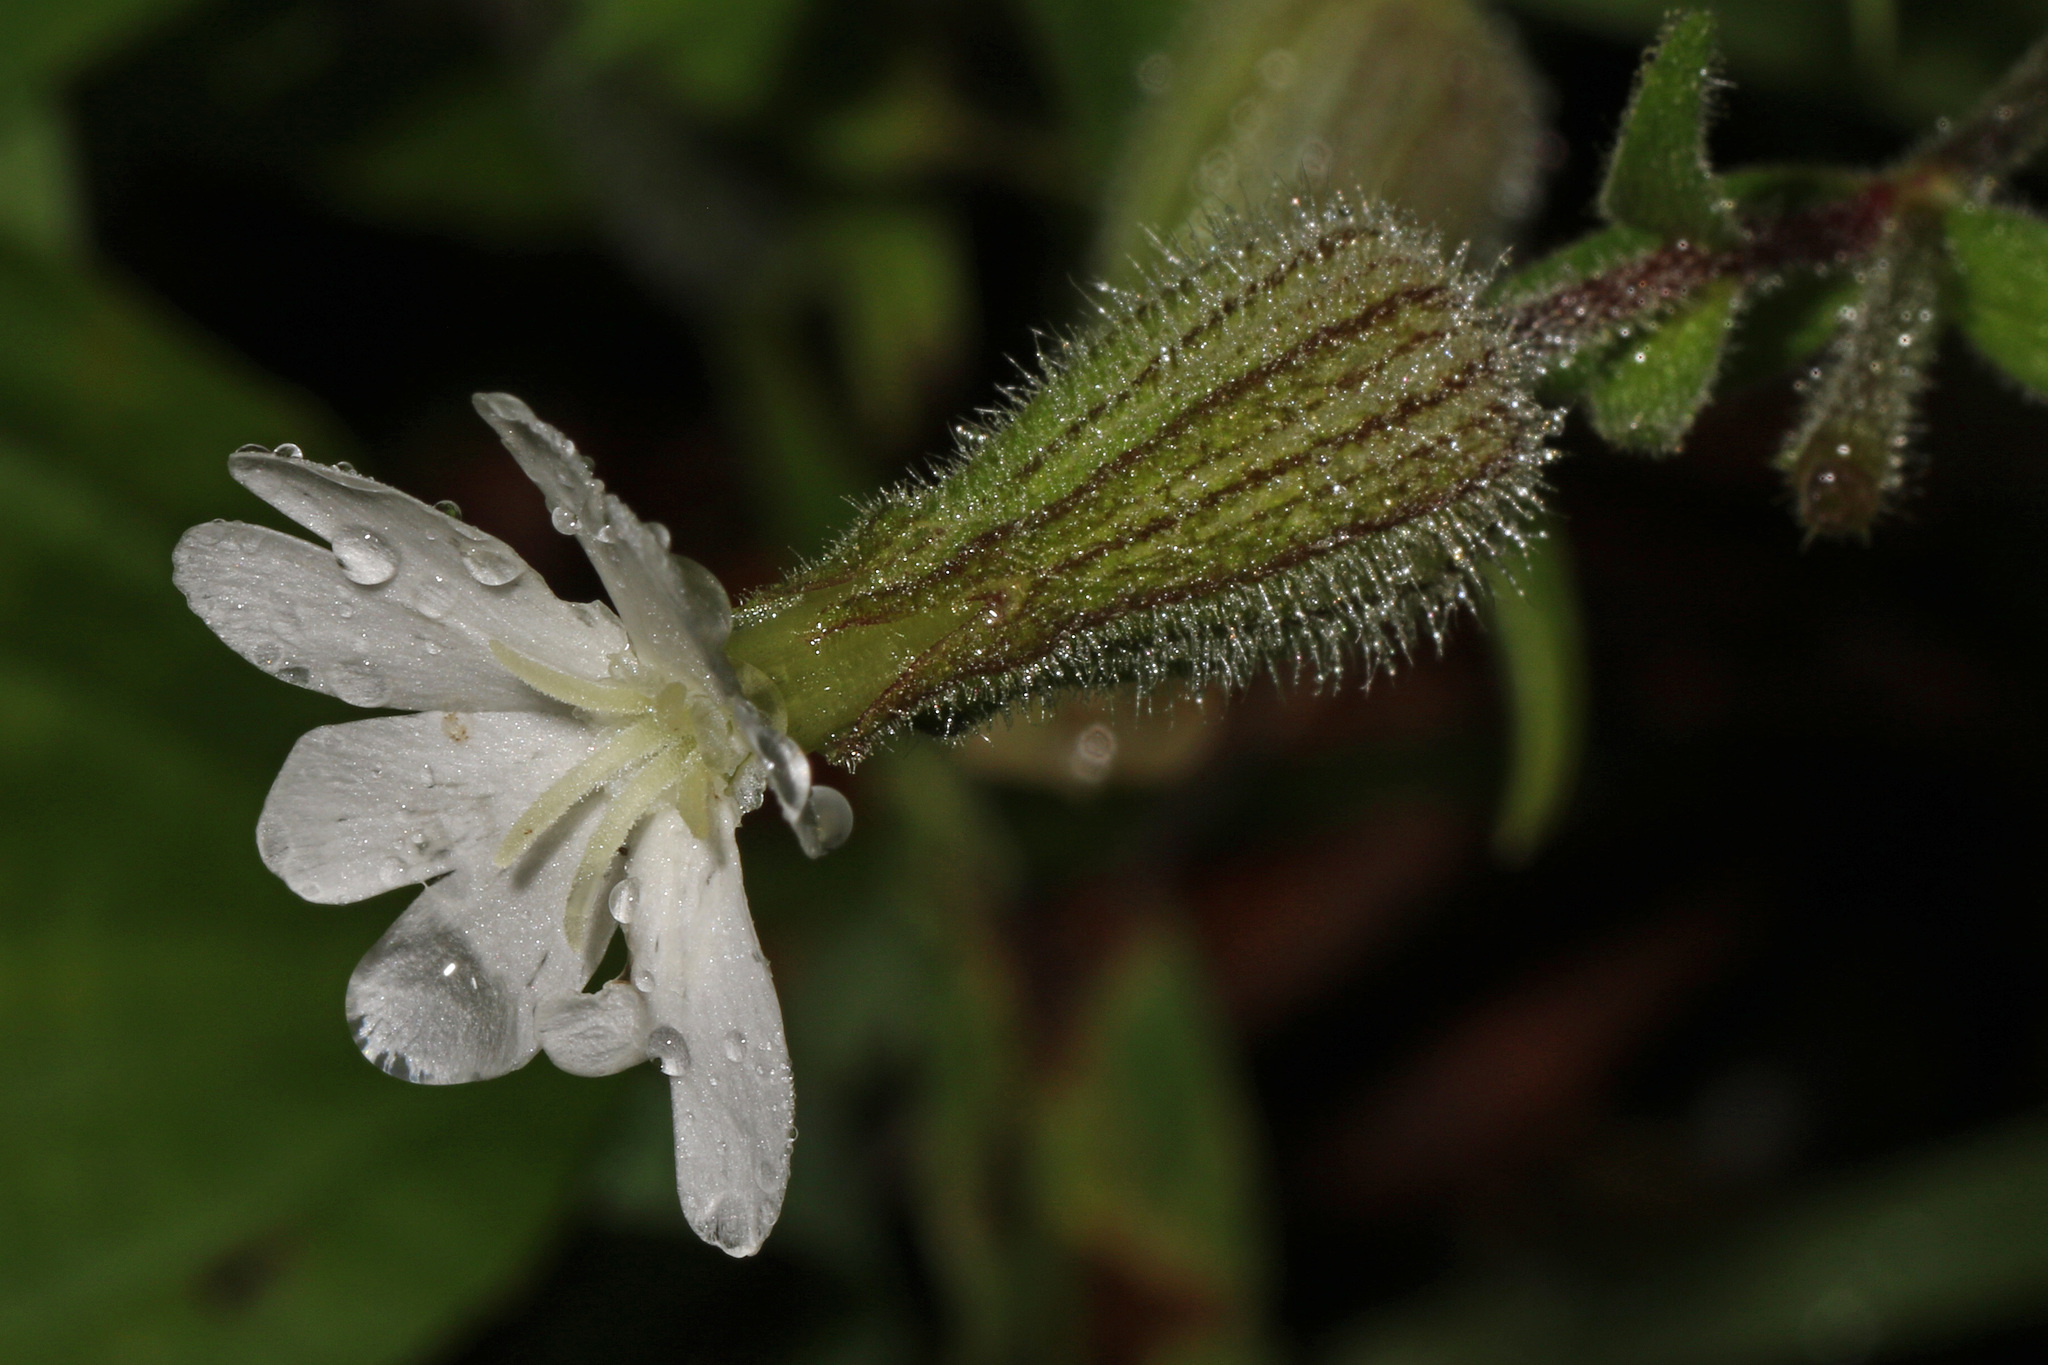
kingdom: Plantae
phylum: Tracheophyta
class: Magnoliopsida
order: Caryophyllales
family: Caryophyllaceae
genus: Silene
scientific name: Silene latifolia
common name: White campion
